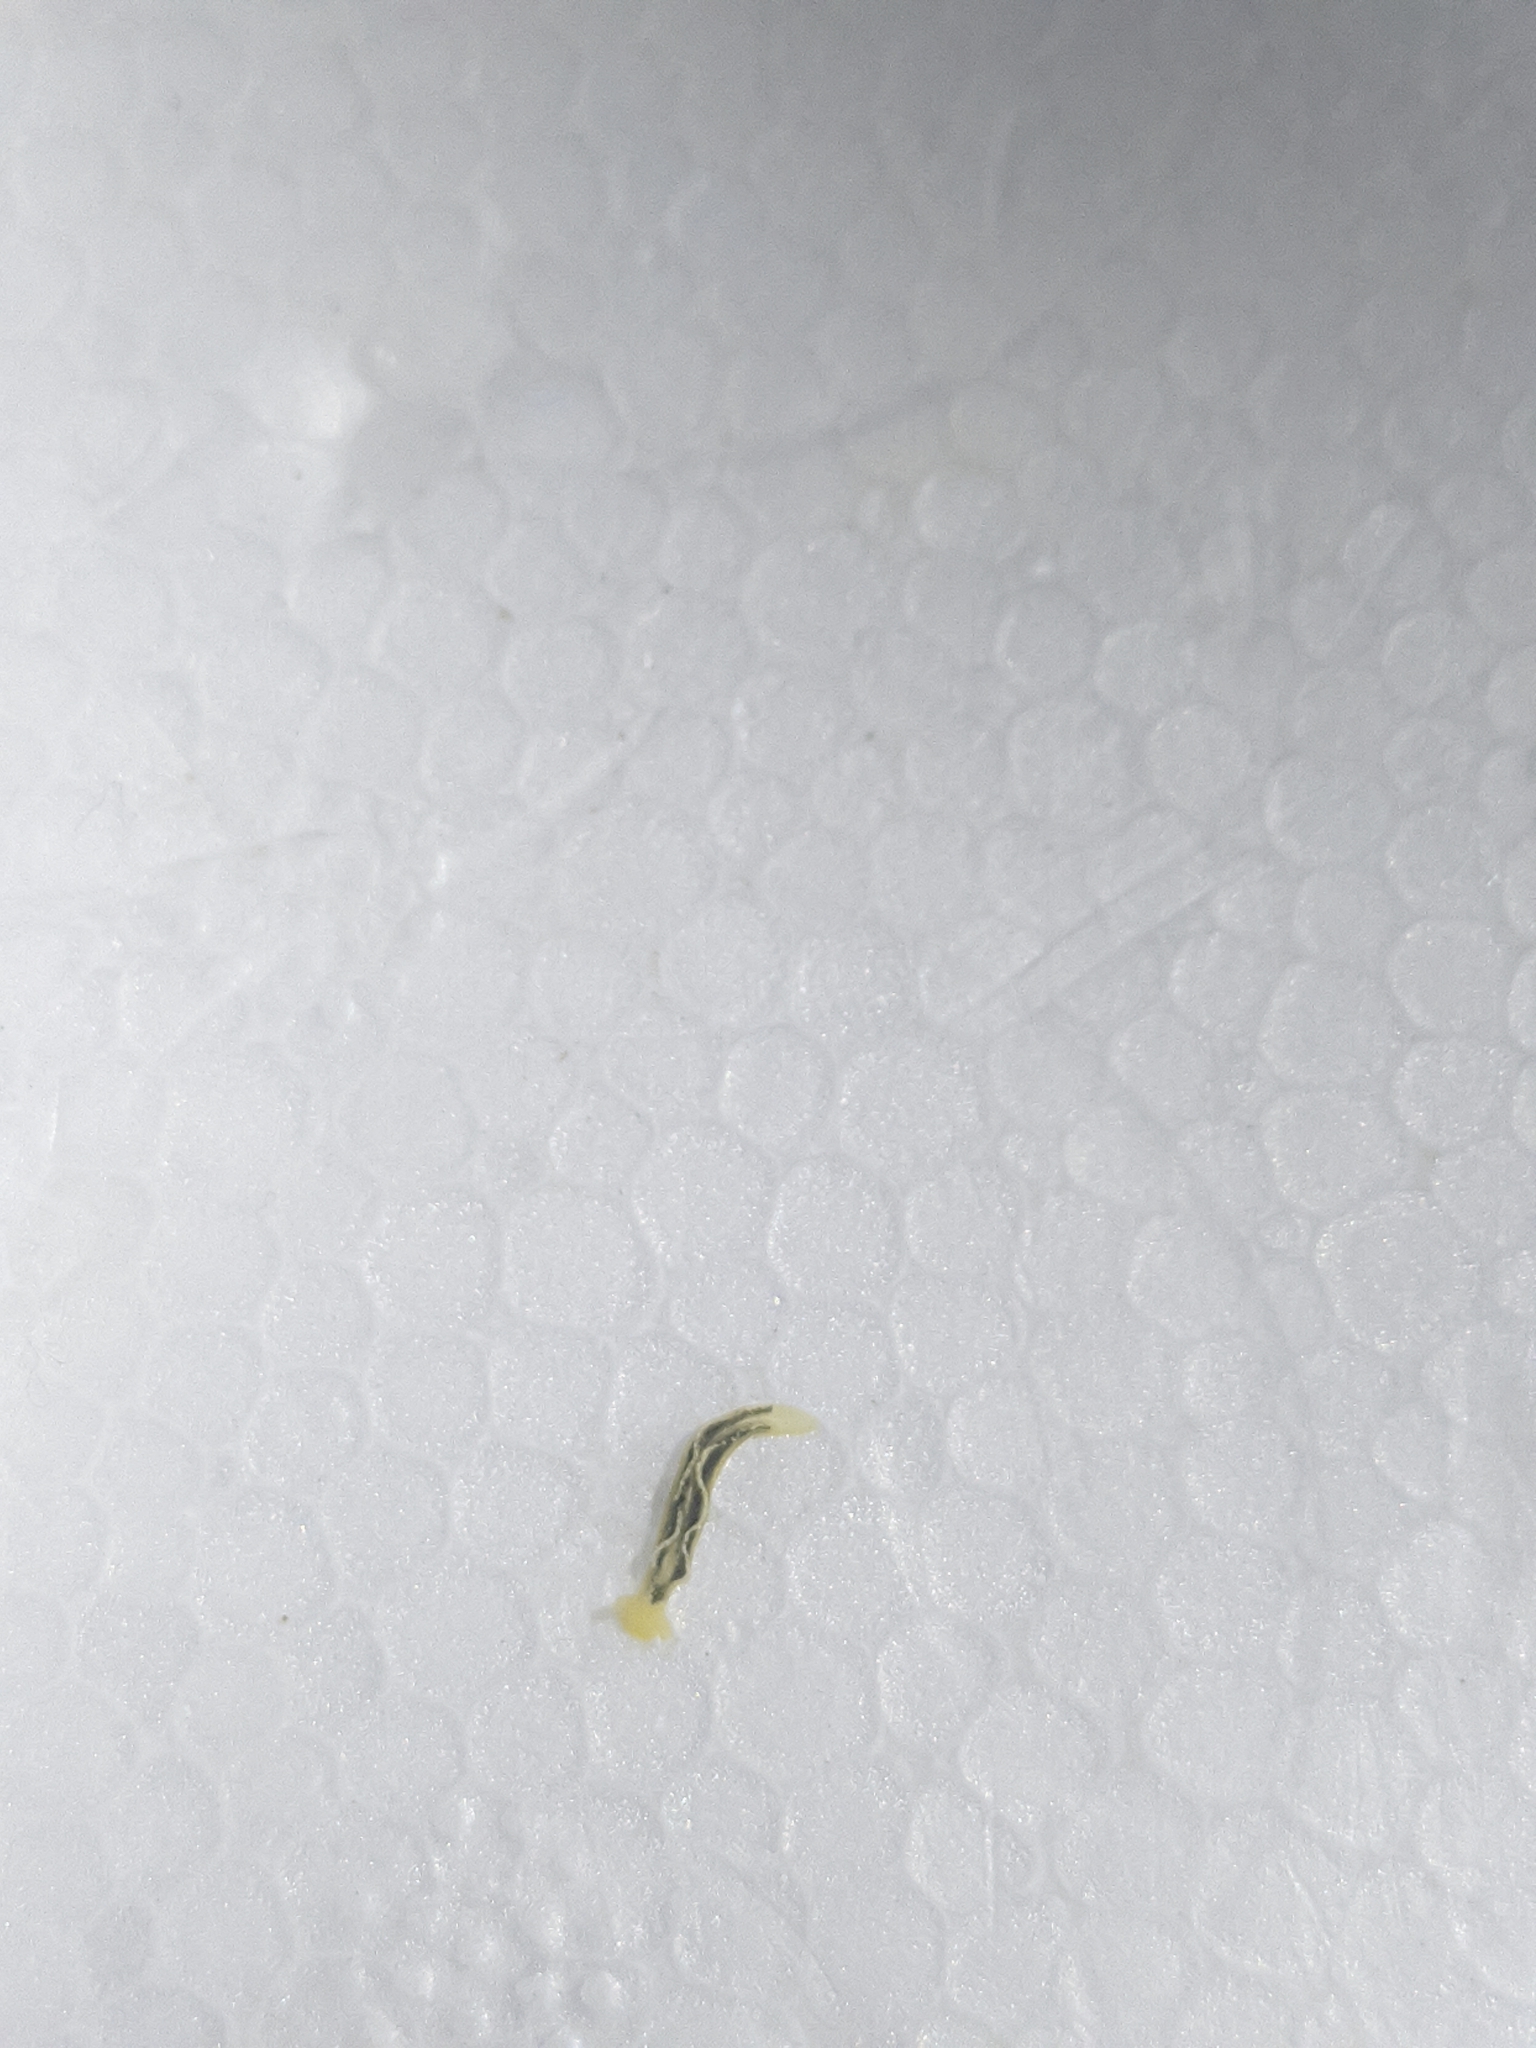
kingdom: Animalia
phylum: Mollusca
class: Gastropoda
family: Plakobranchidae
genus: Elysia
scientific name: Elysia flava
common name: Yellow elysia
